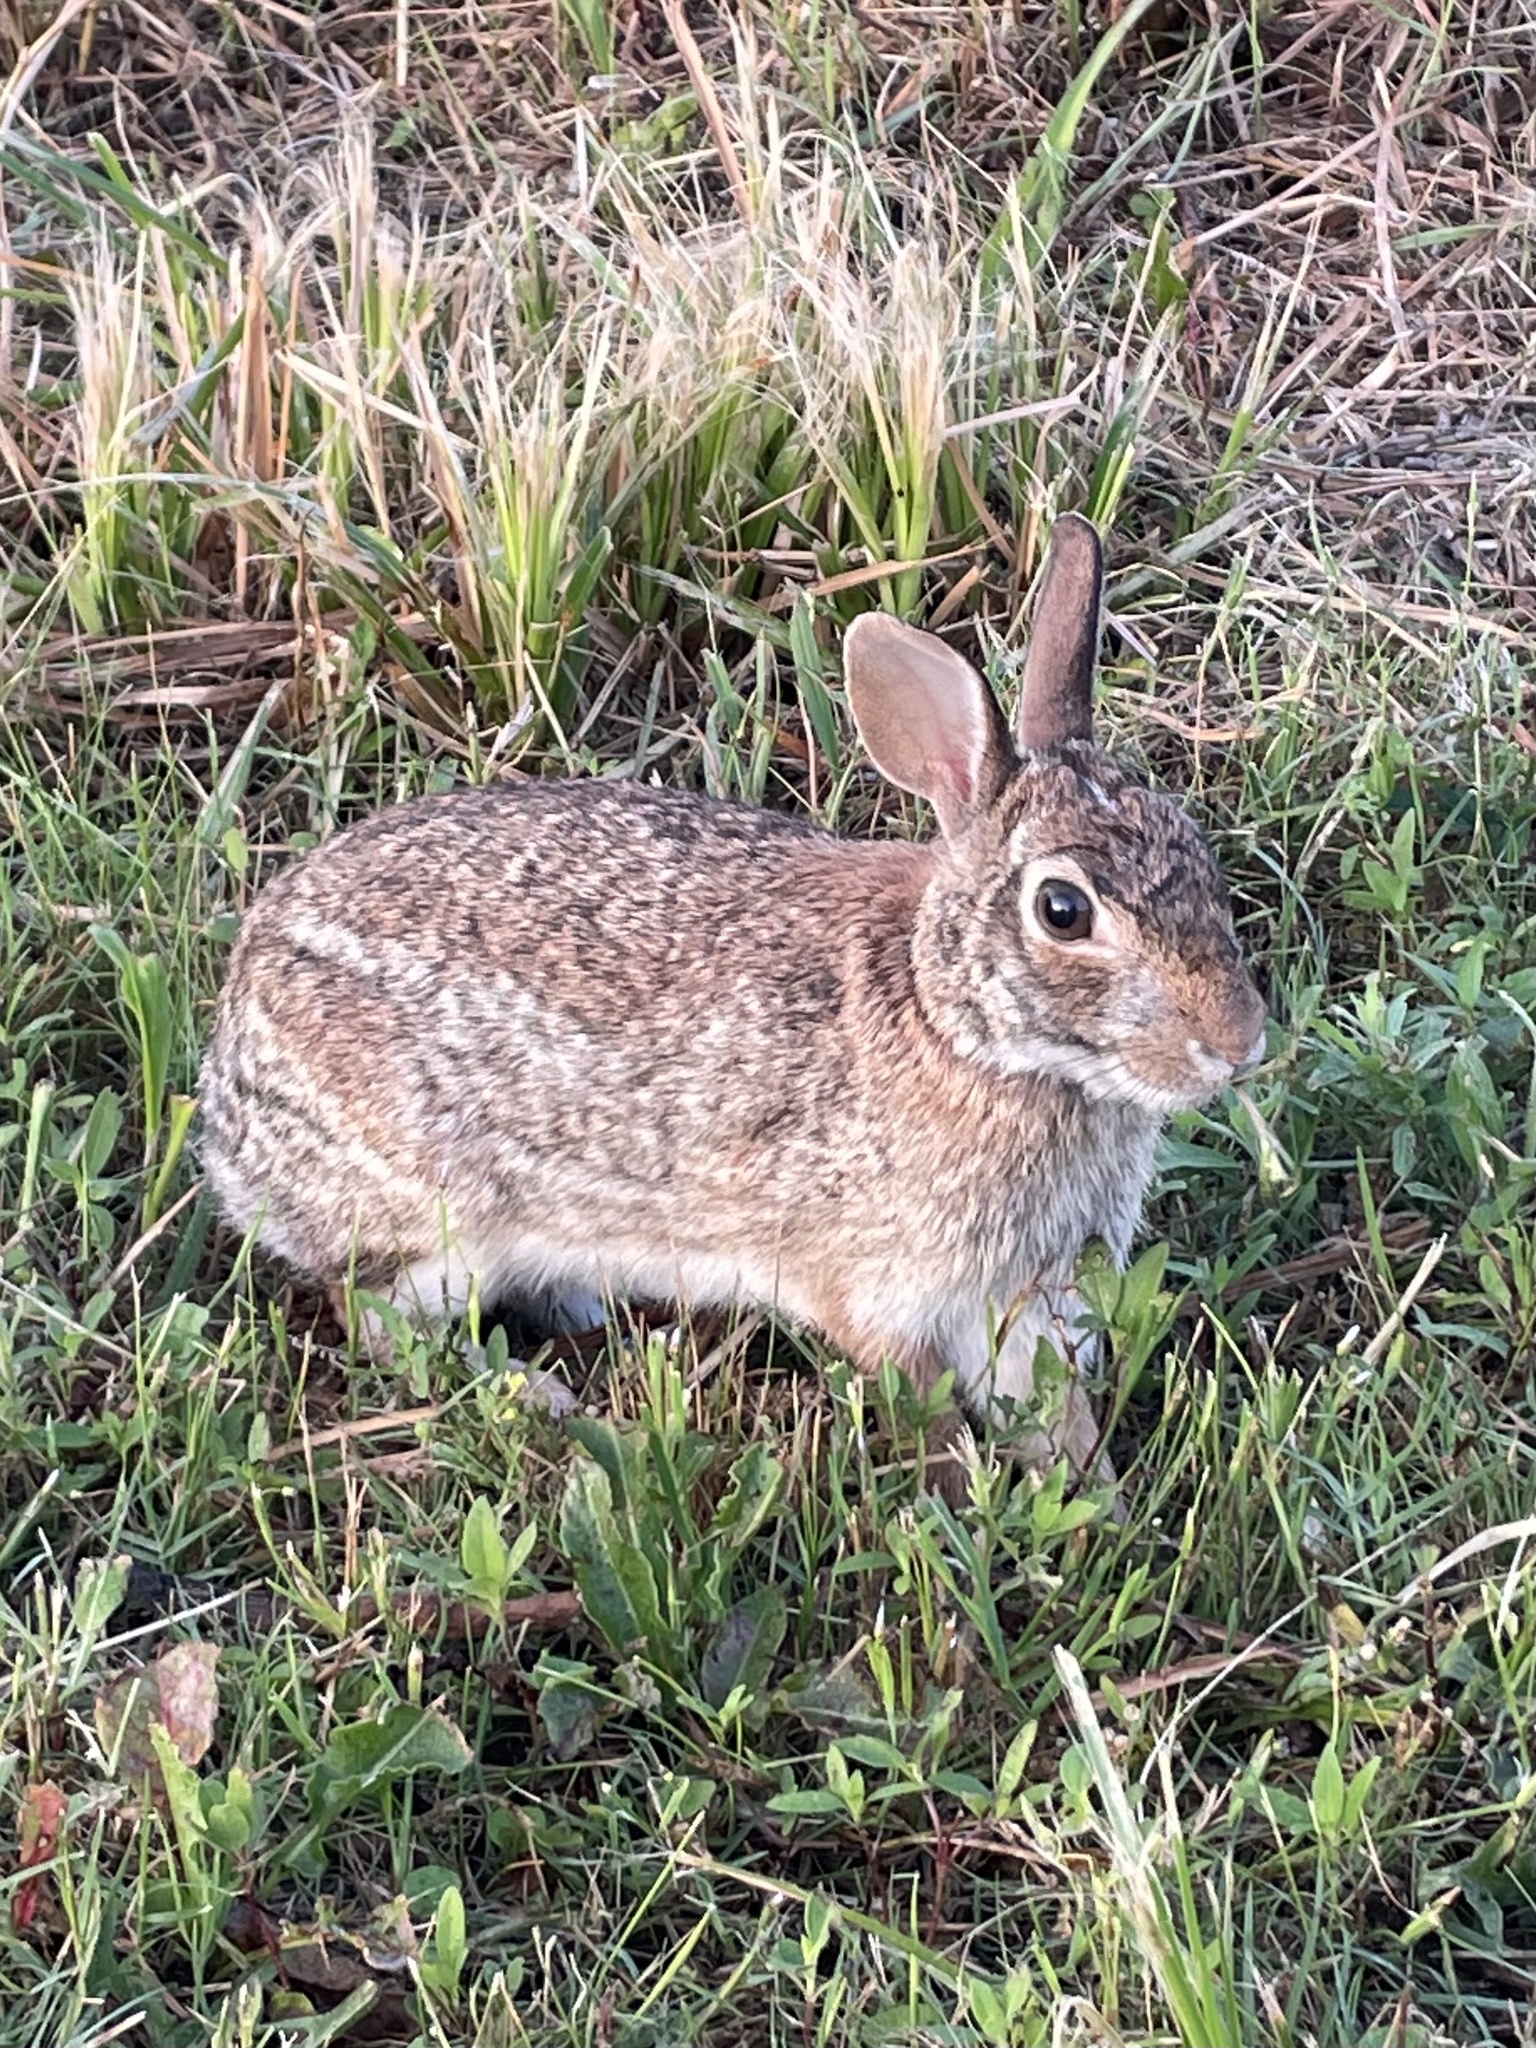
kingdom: Animalia
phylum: Chordata
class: Mammalia
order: Lagomorpha
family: Leporidae
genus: Sylvilagus
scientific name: Sylvilagus floridanus
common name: Eastern cottontail
